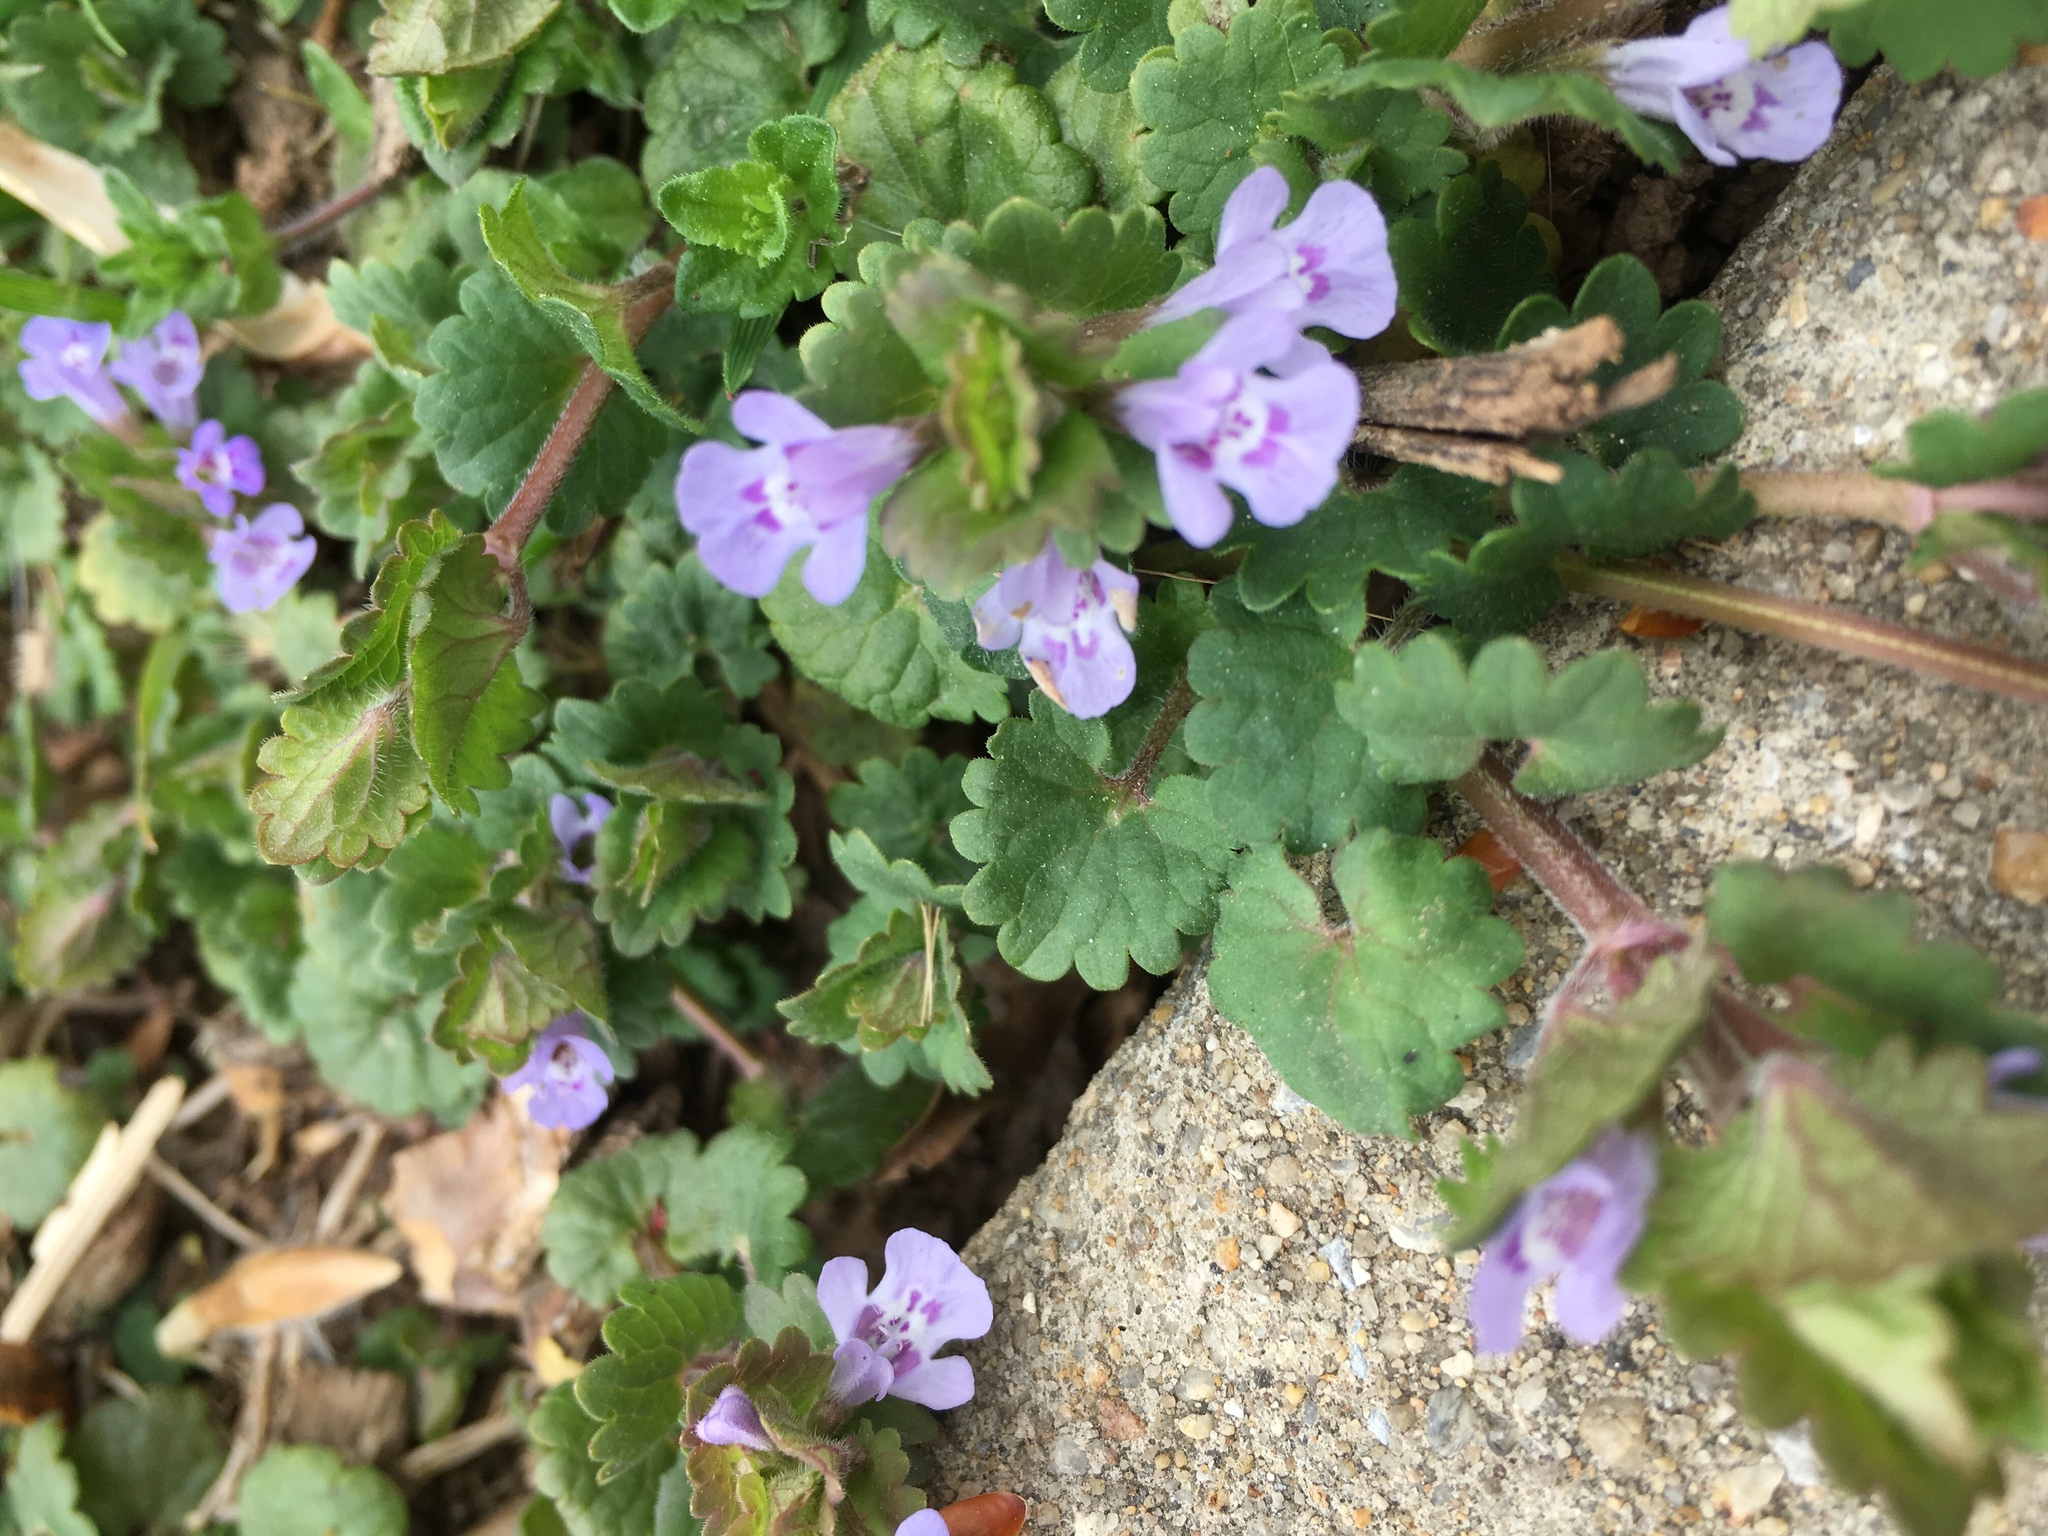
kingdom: Plantae
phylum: Tracheophyta
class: Magnoliopsida
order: Lamiales
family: Lamiaceae
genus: Glechoma
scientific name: Glechoma hederacea
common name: Ground ivy
